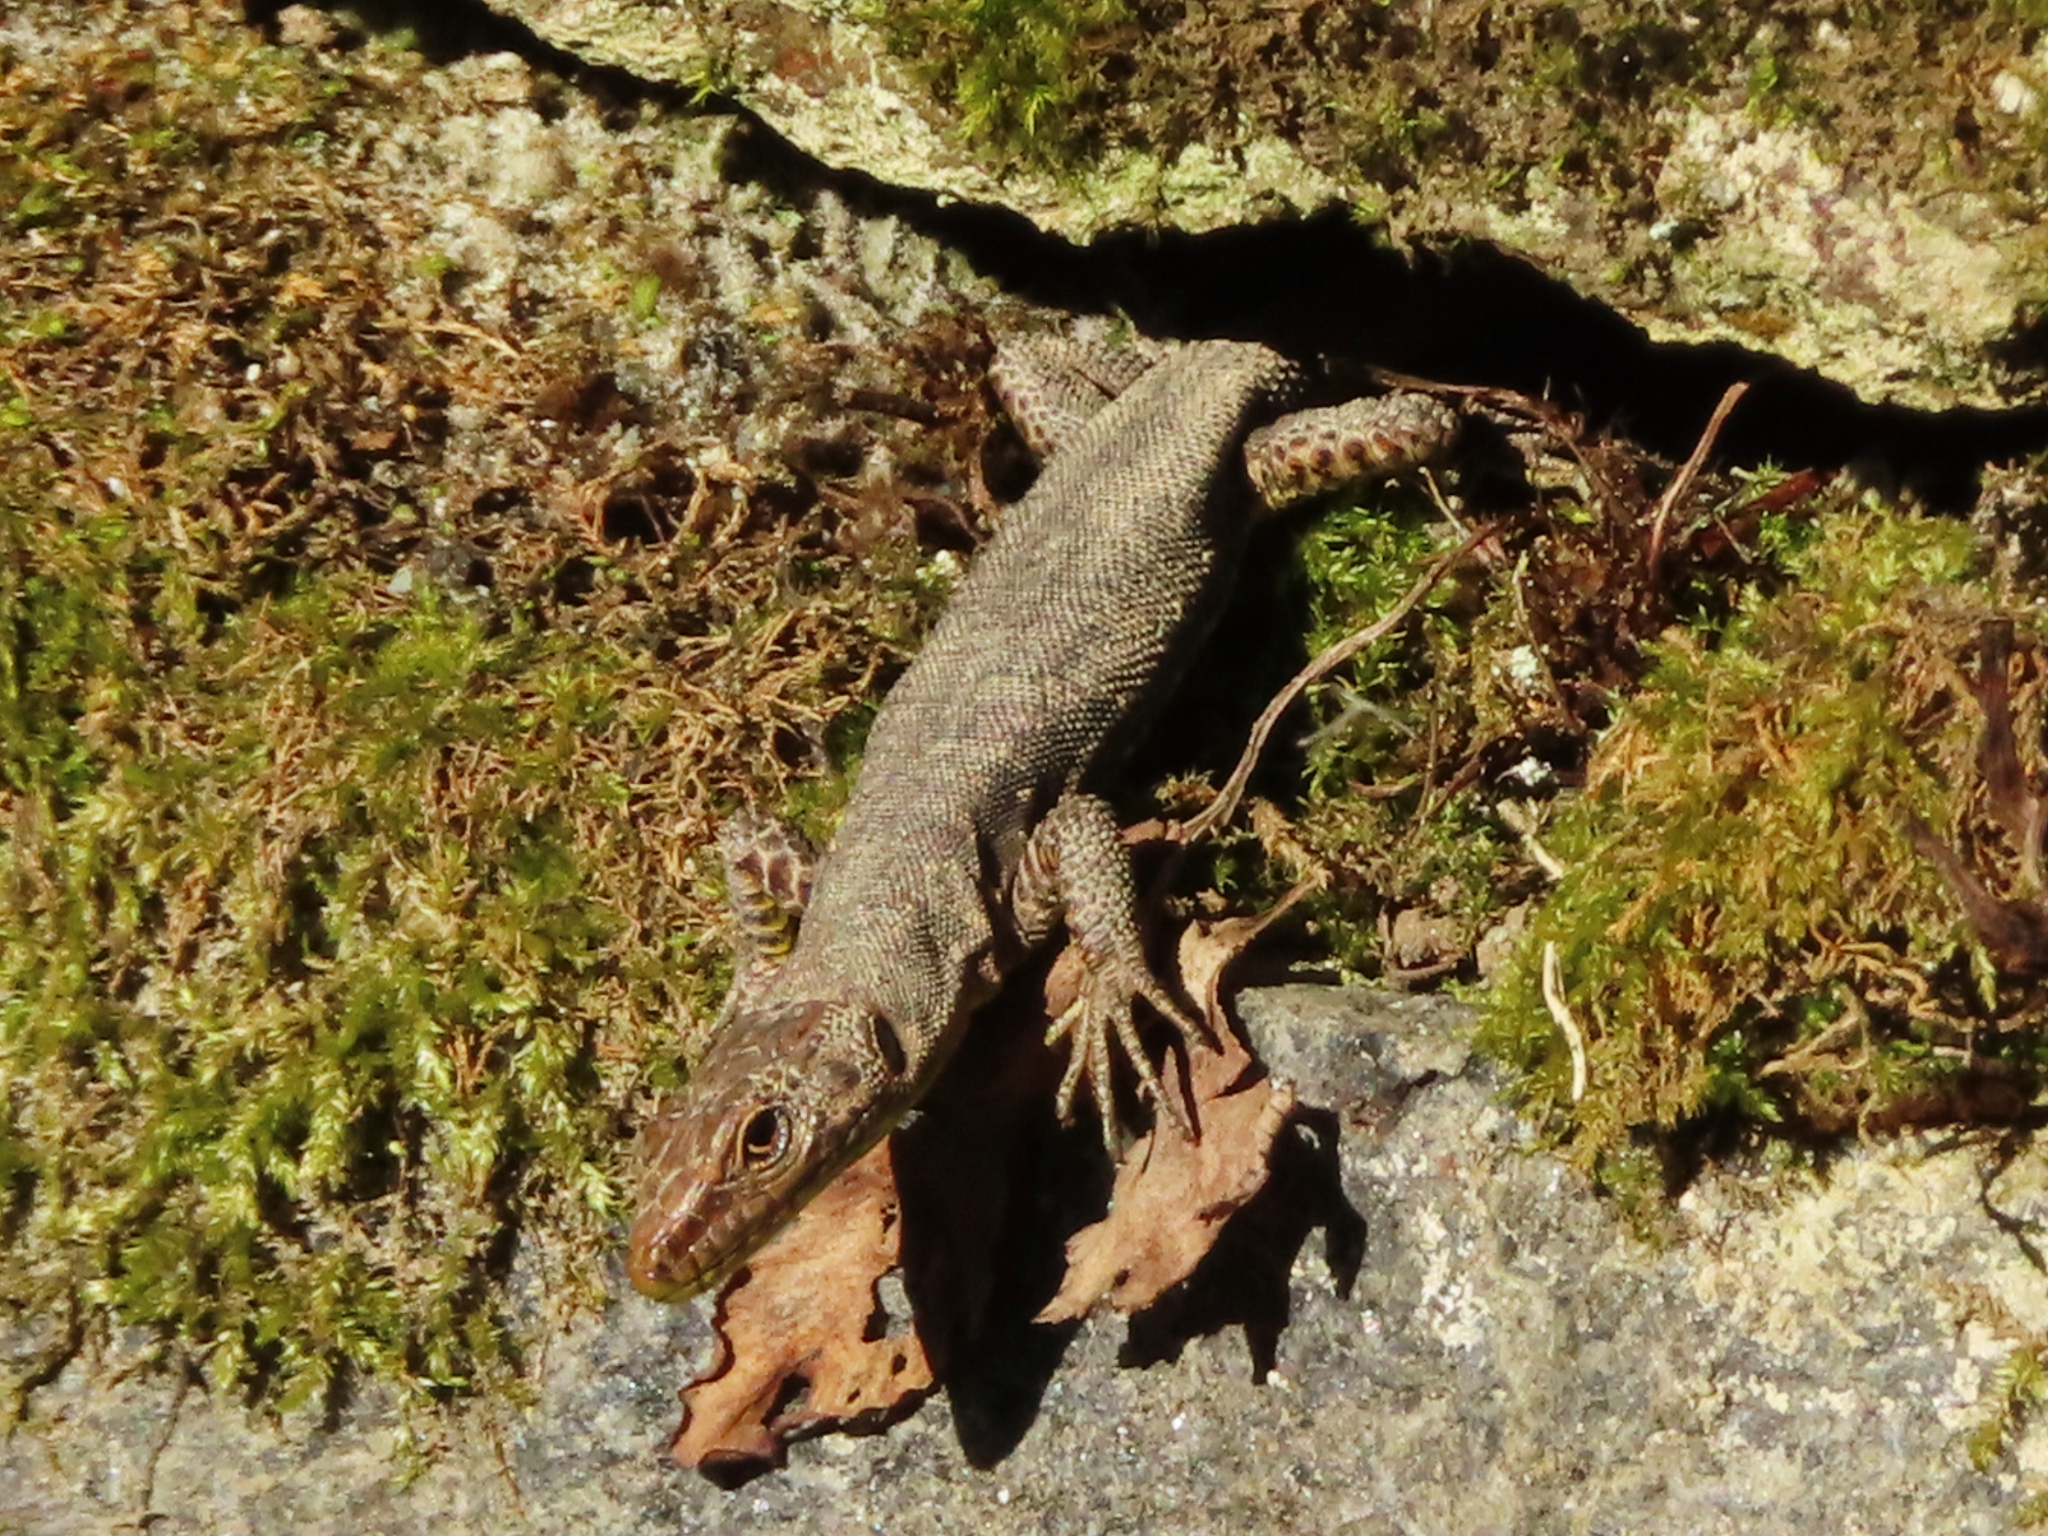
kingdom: Animalia
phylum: Chordata
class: Squamata
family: Lacertidae
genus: Darevskia
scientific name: Darevskia rudis
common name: Spiny-tailed lizard
